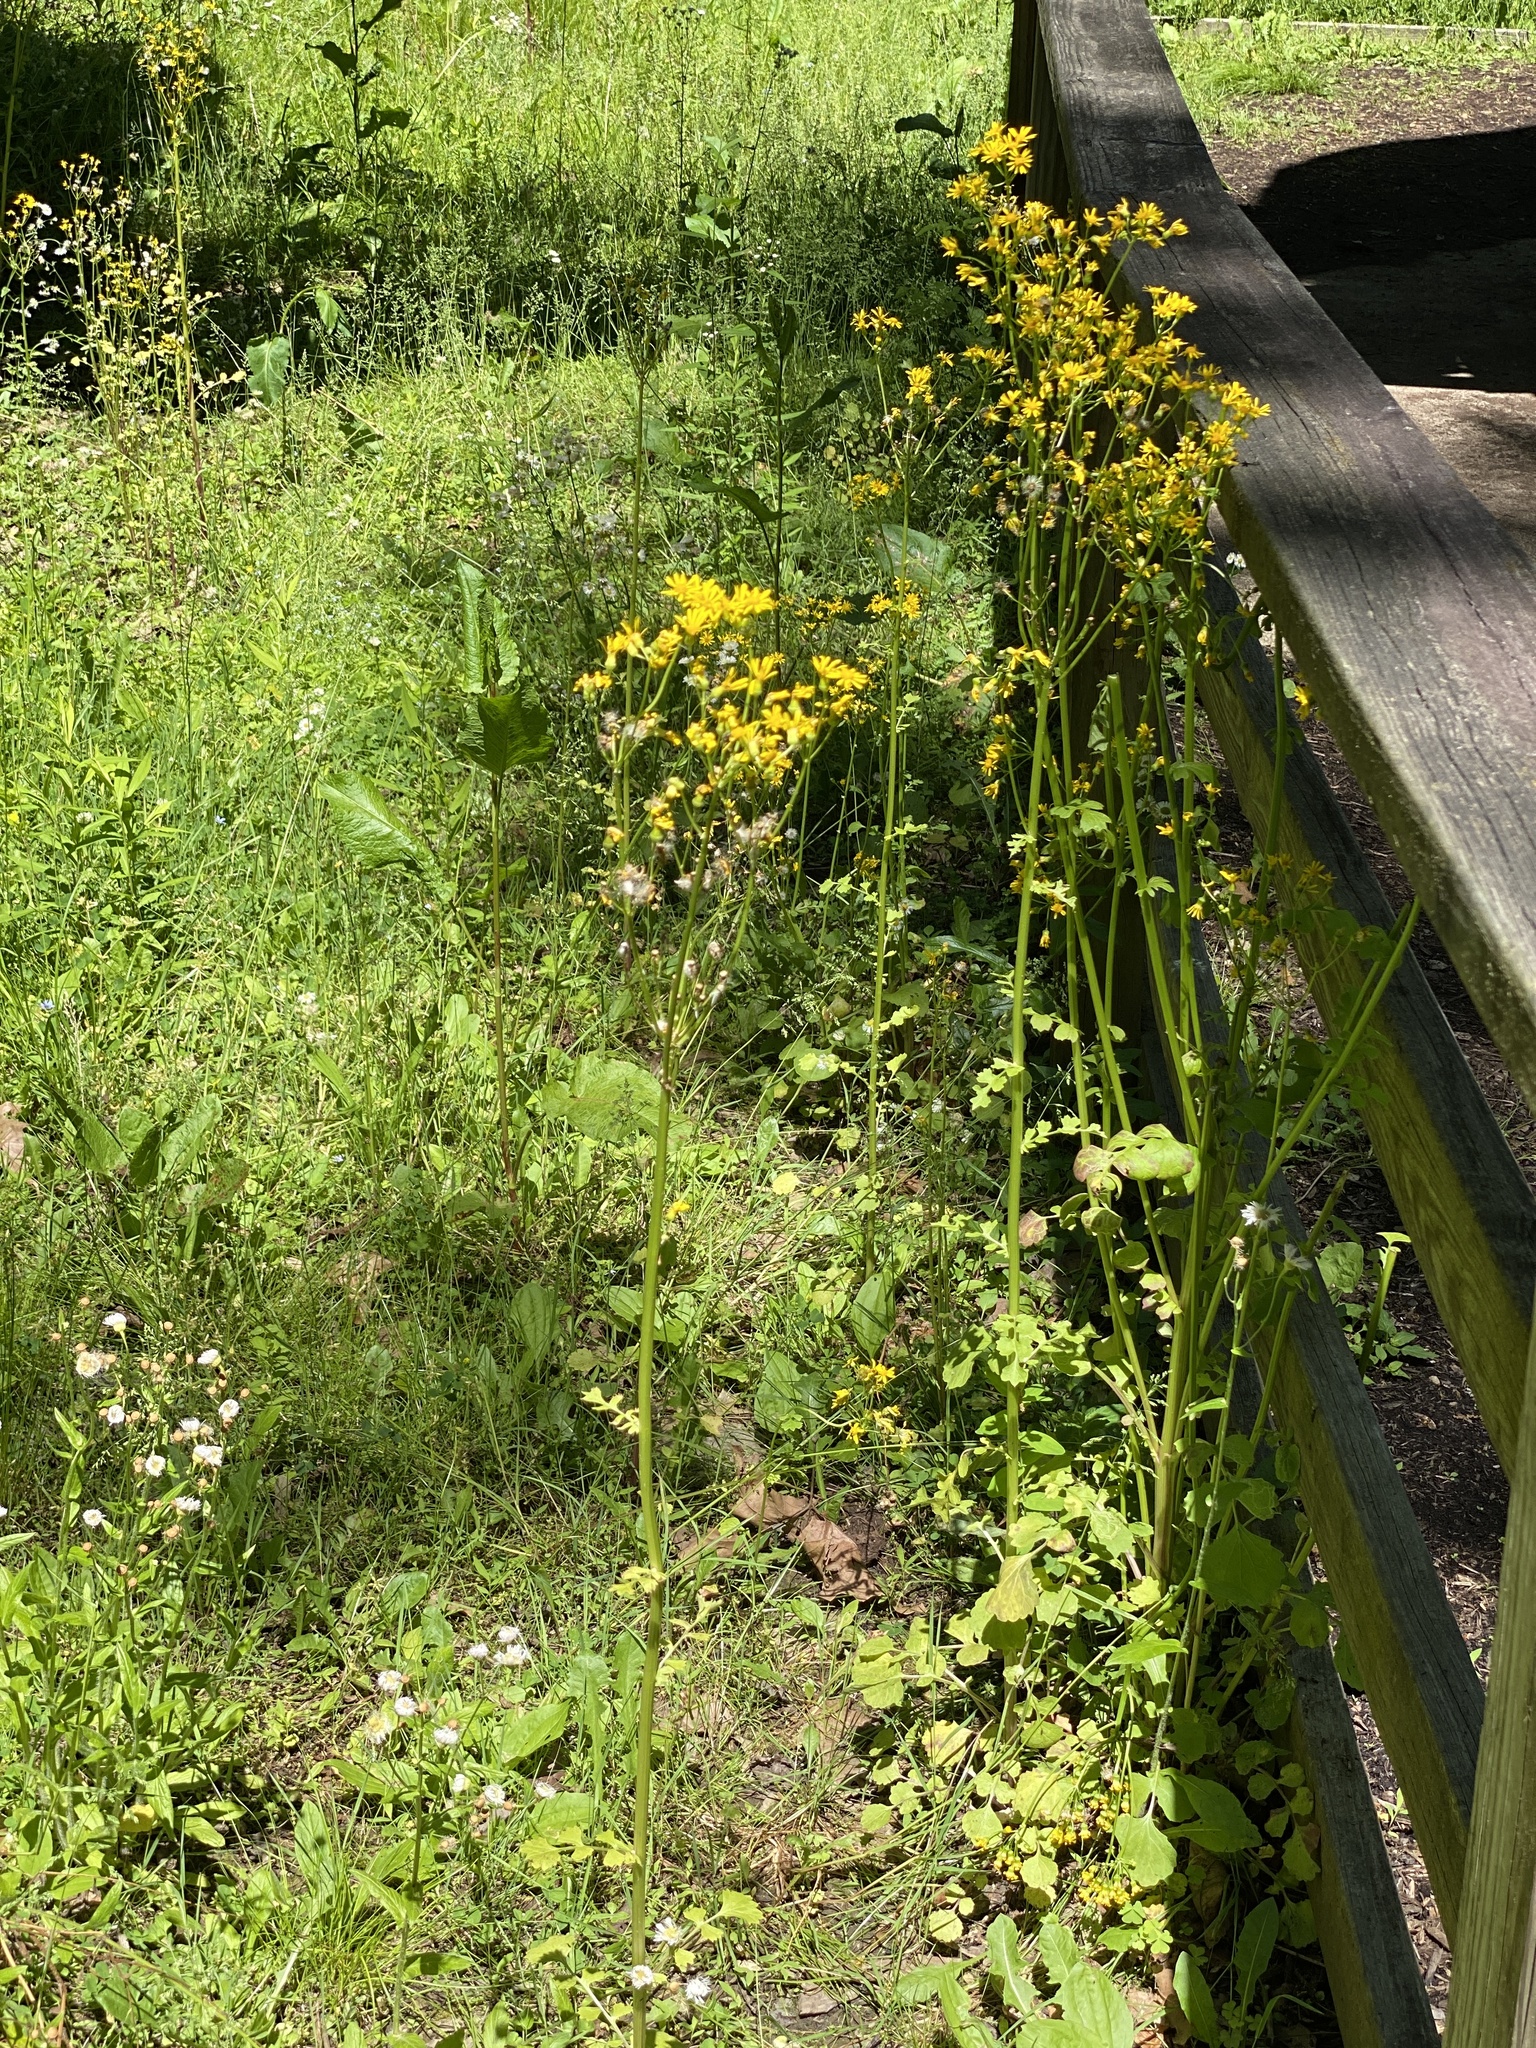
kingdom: Plantae
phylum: Tracheophyta
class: Magnoliopsida
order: Asterales
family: Asteraceae
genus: Packera
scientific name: Packera glabella
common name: Butterweed
